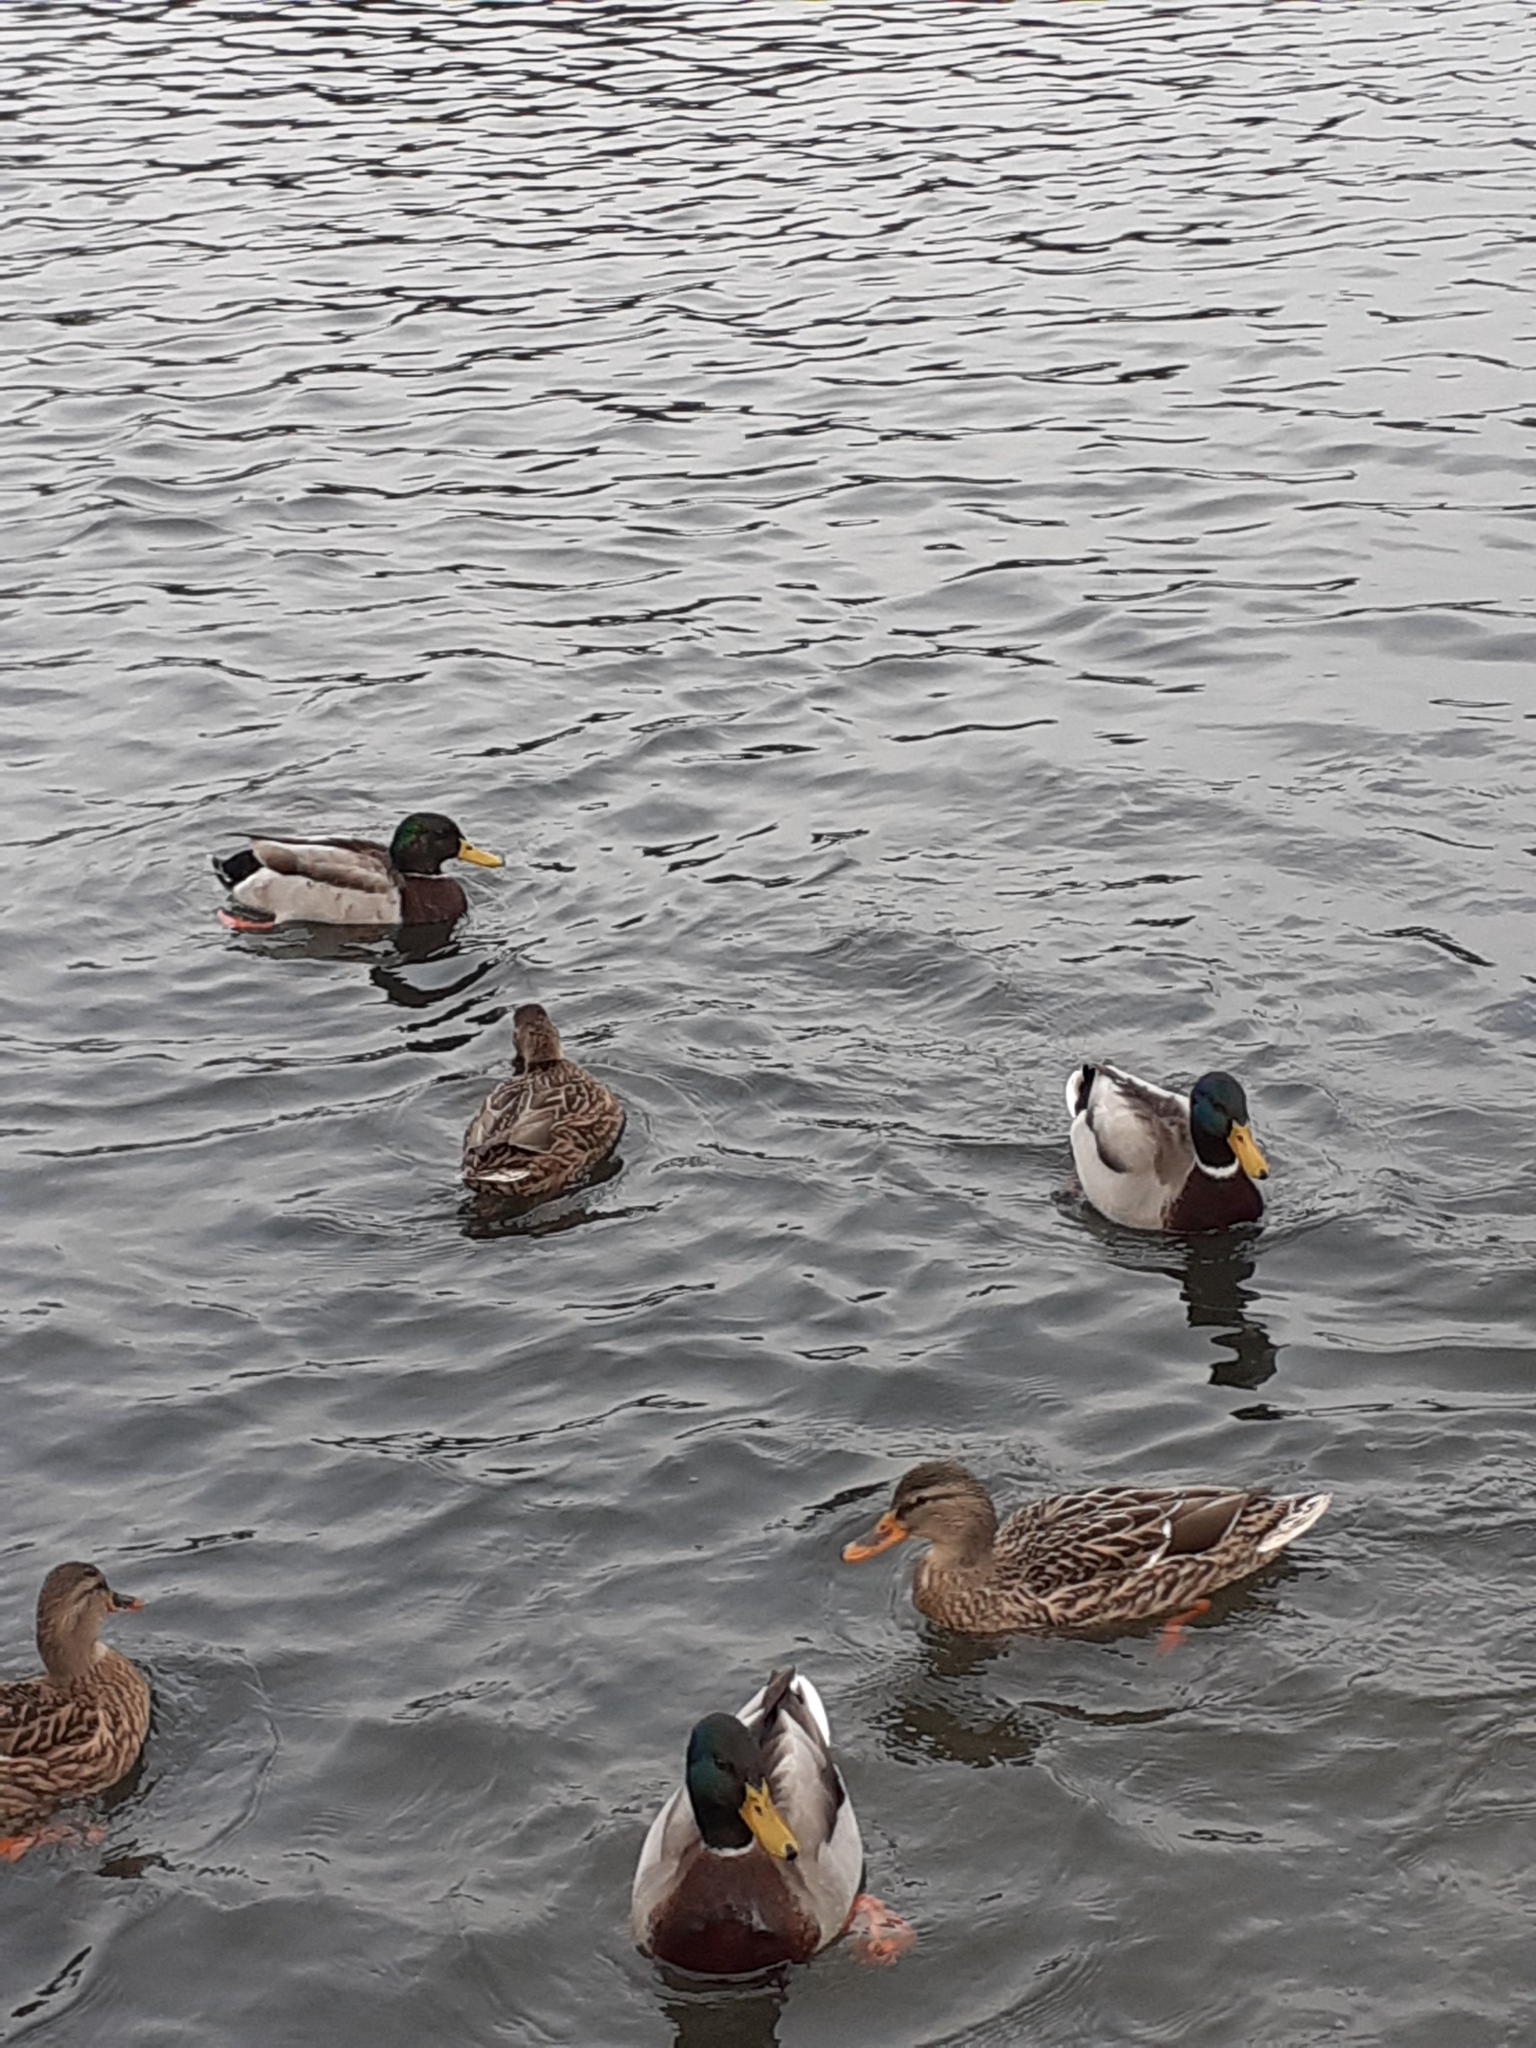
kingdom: Animalia
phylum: Chordata
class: Aves
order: Anseriformes
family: Anatidae
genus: Anas
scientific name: Anas platyrhynchos
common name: Mallard
